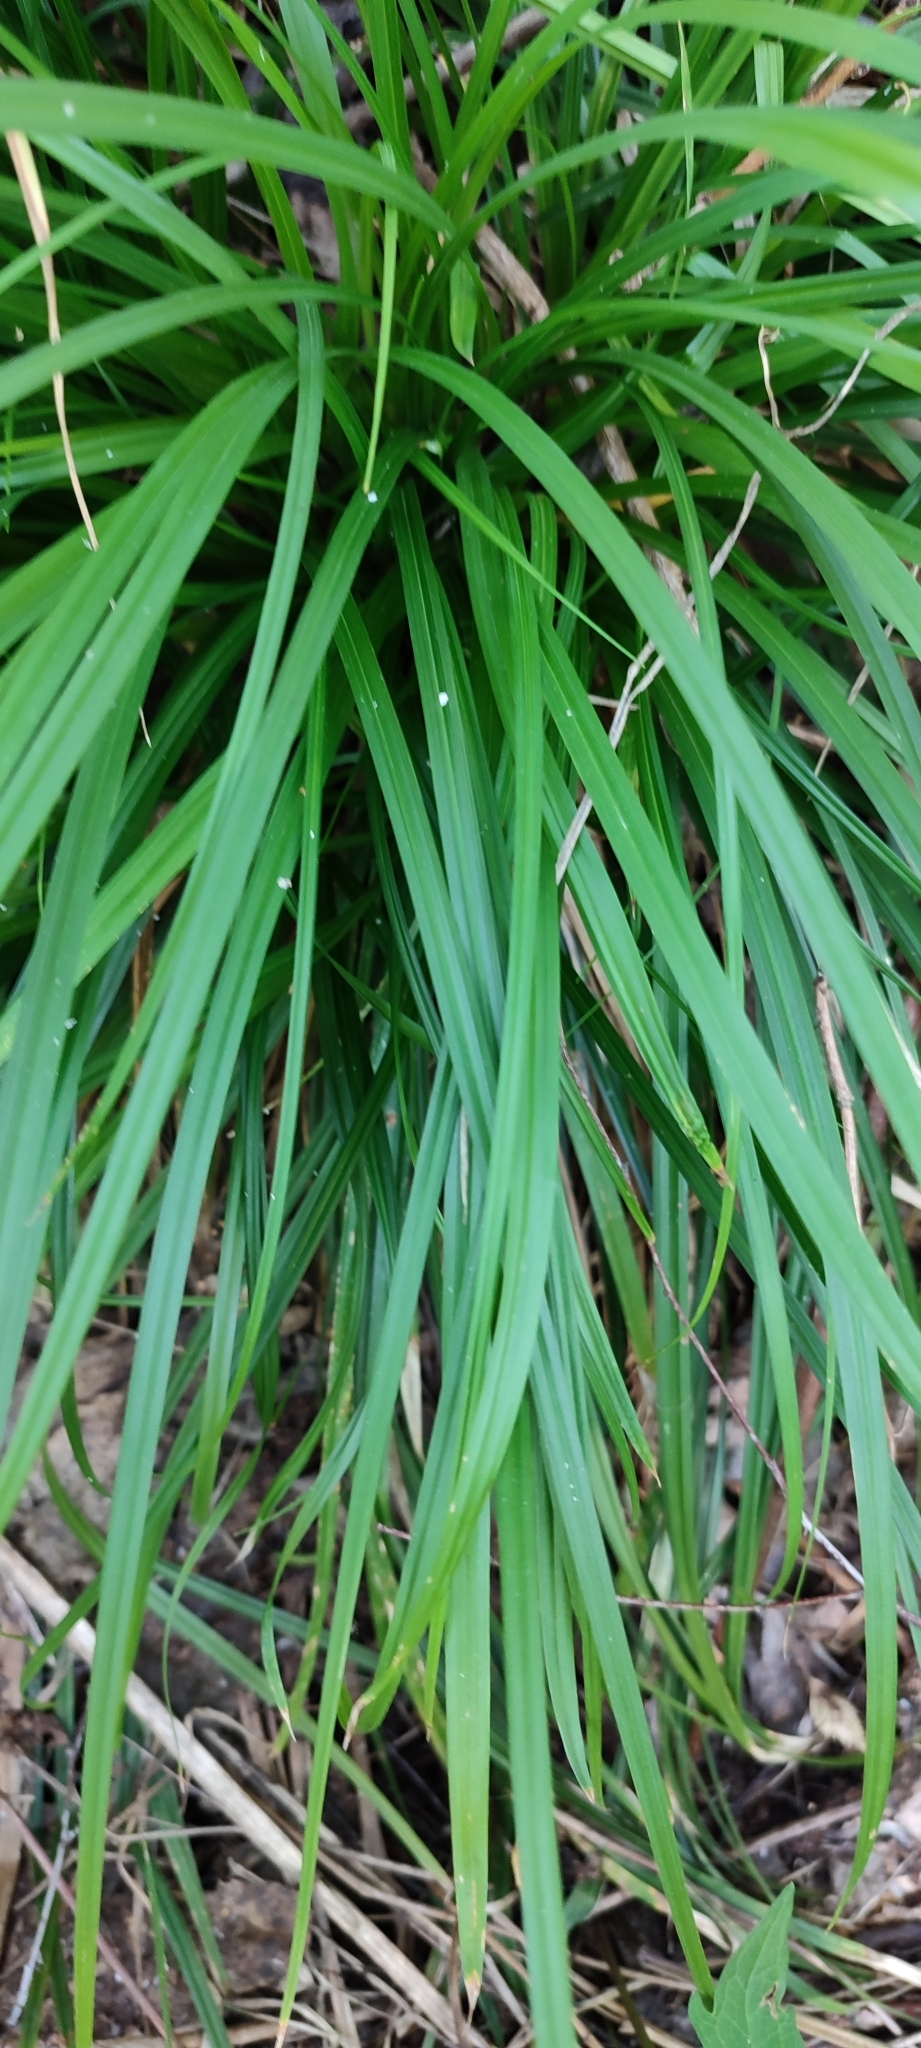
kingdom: Plantae
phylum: Tracheophyta
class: Liliopsida
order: Poales
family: Cyperaceae
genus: Carex
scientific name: Carex brevicollis
